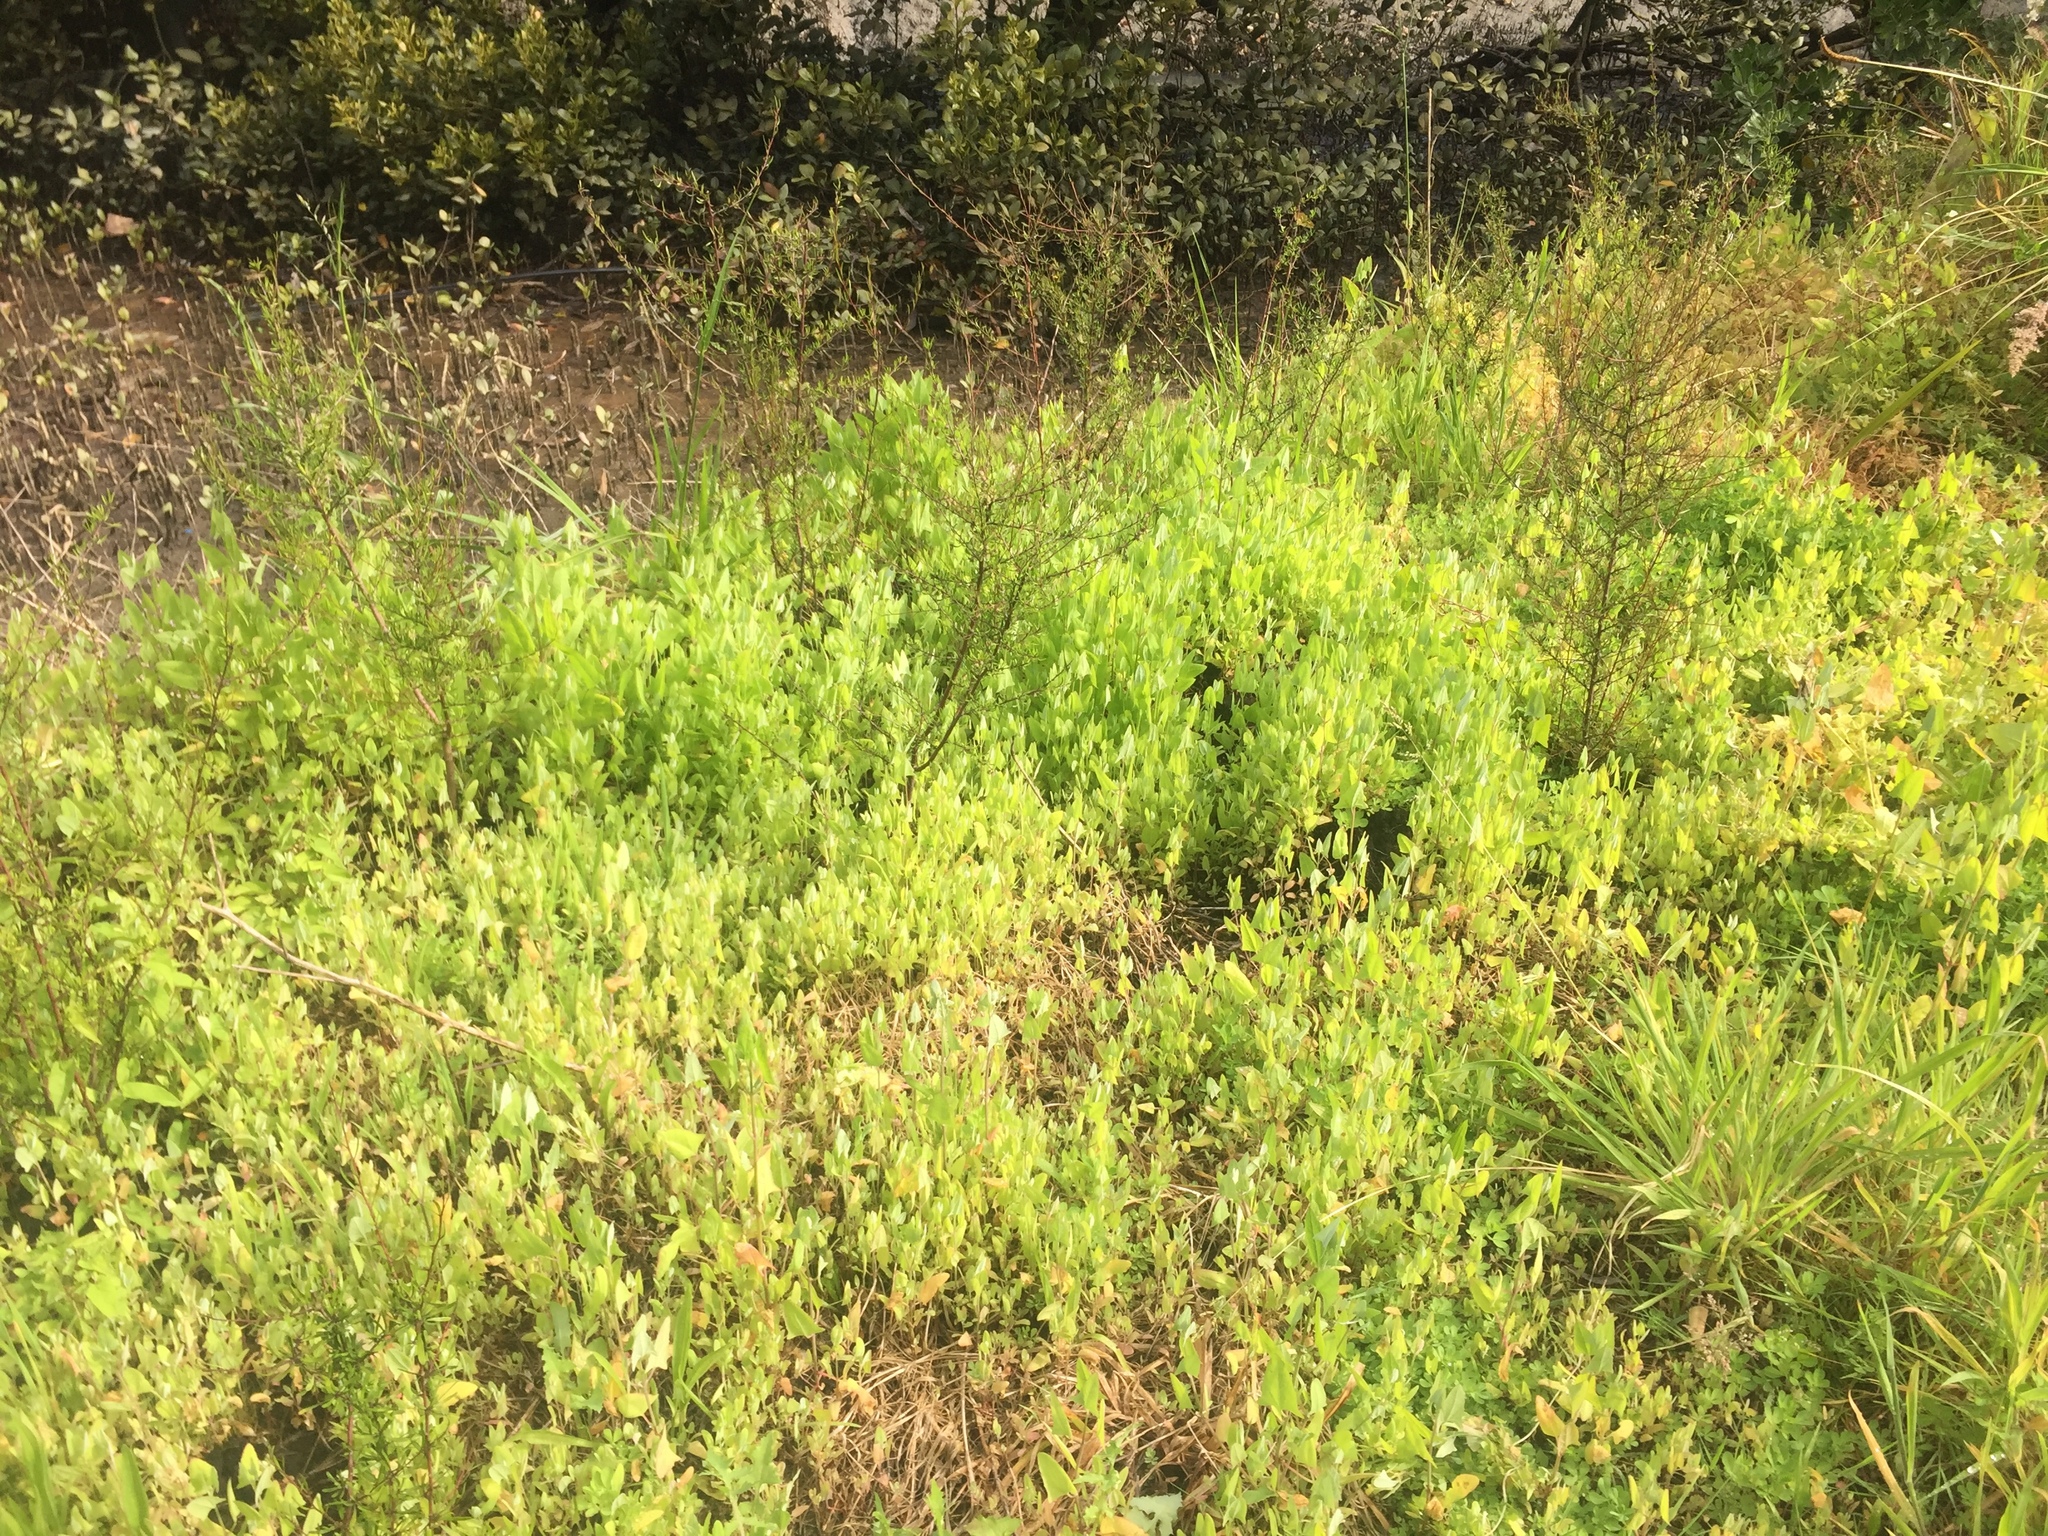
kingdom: Plantae
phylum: Tracheophyta
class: Magnoliopsida
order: Caryophyllales
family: Amaranthaceae
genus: Atriplex
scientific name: Atriplex prostrata
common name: Spear-leaved orache
